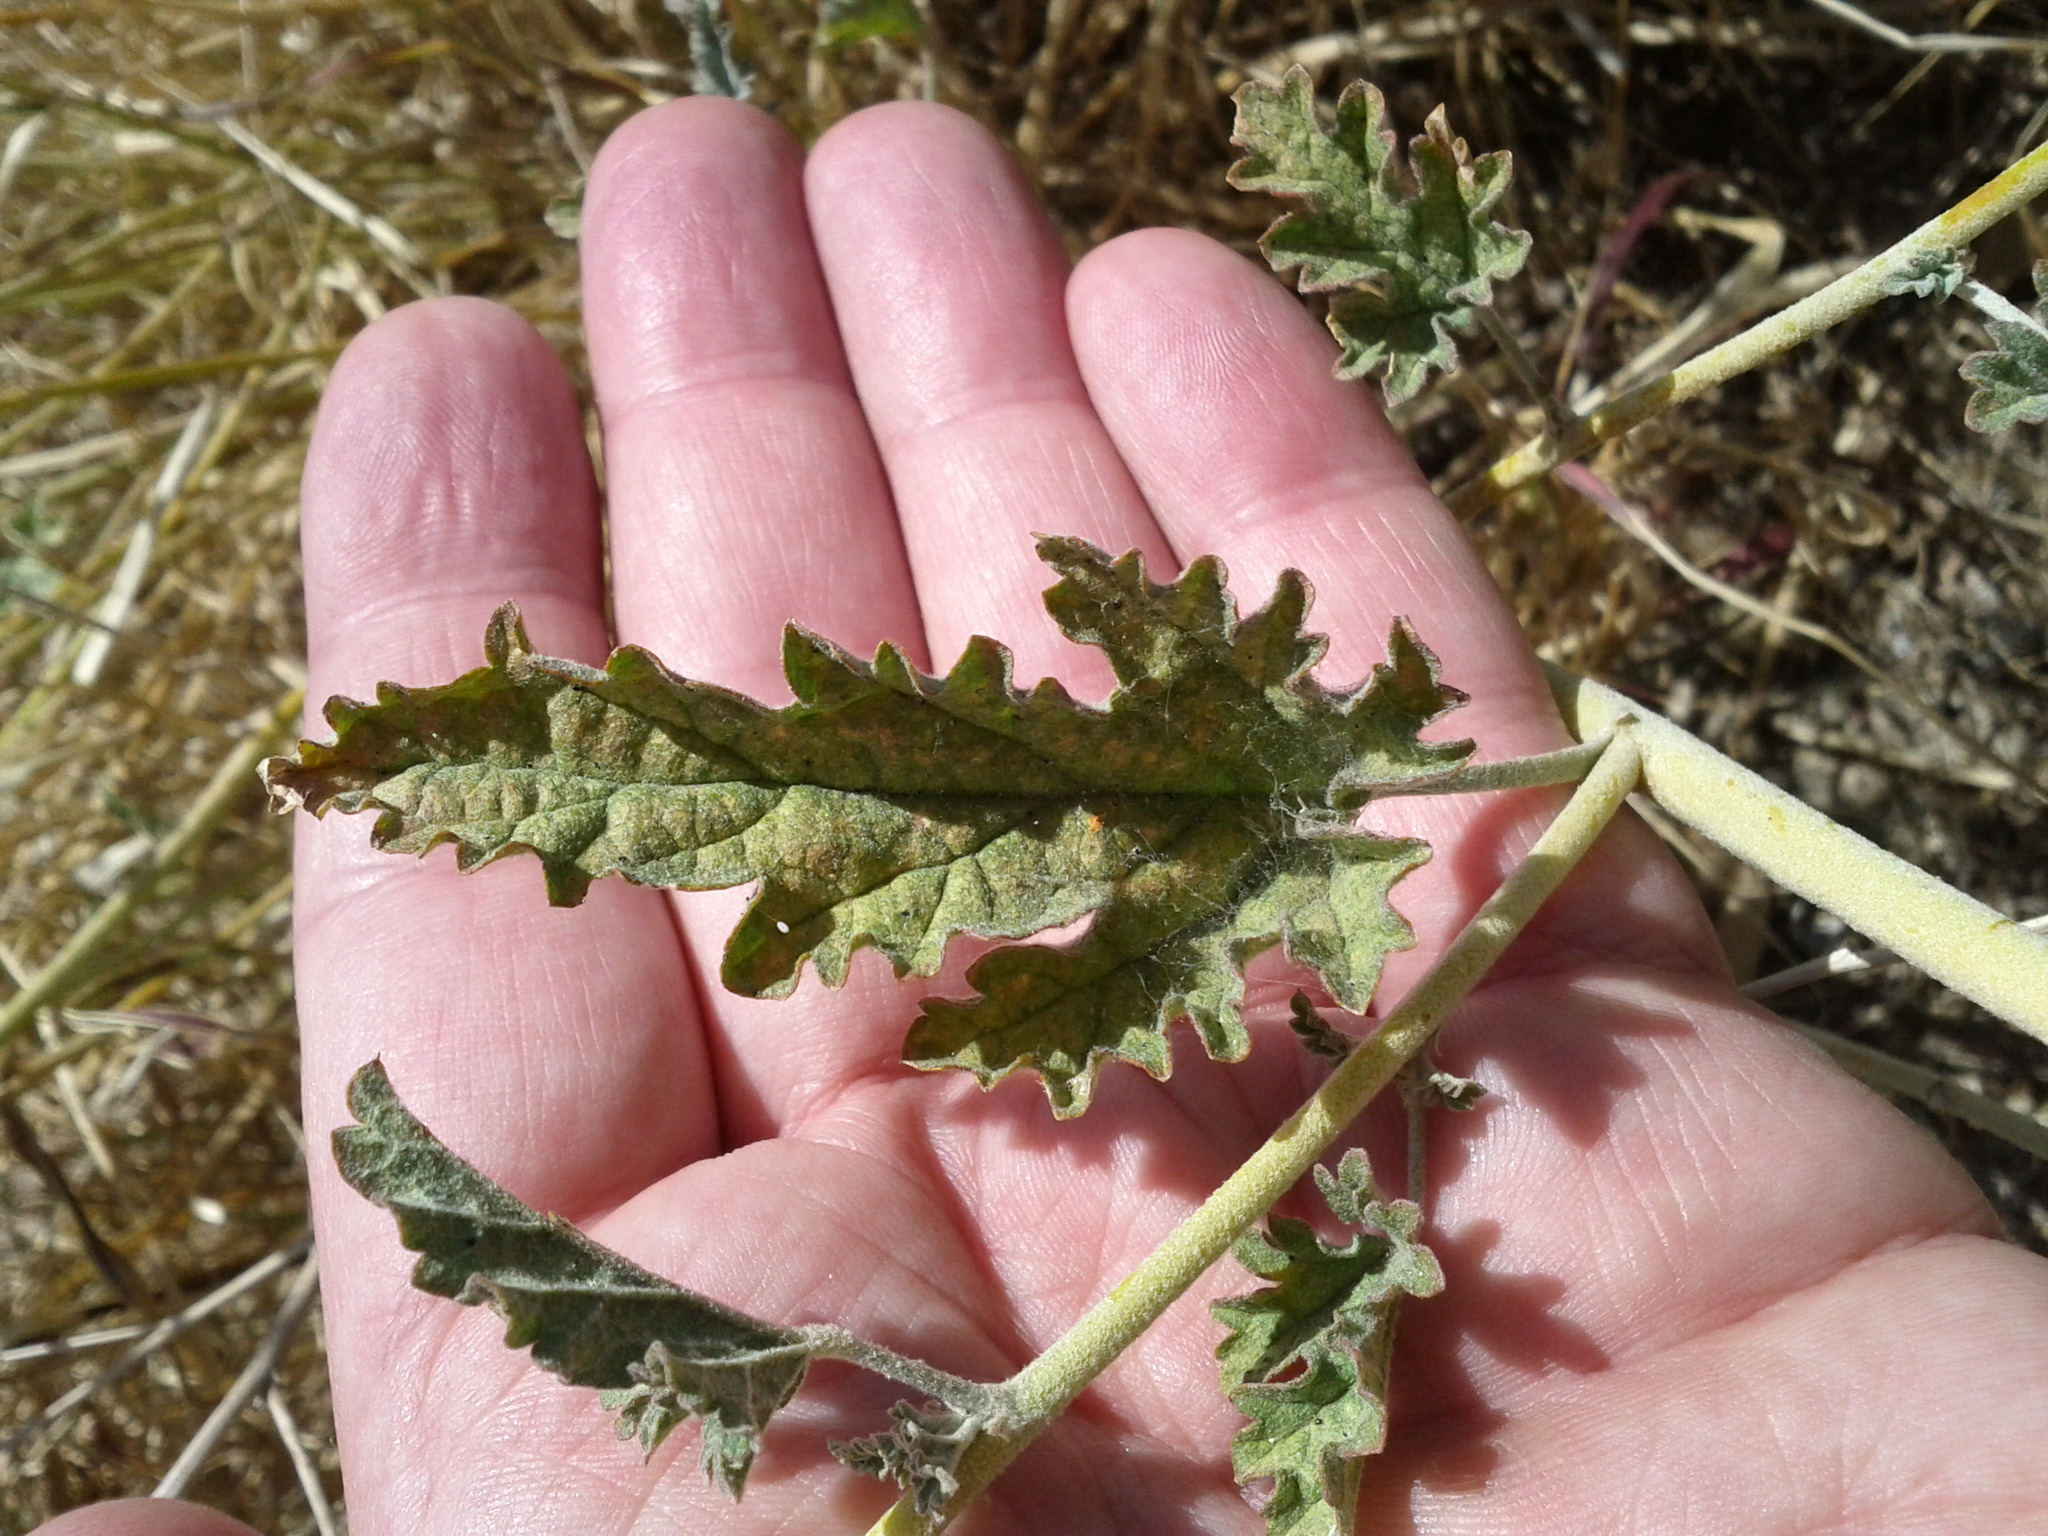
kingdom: Plantae
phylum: Tracheophyta
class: Magnoliopsida
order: Malvales
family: Malvaceae
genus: Sphaeralcea
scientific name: Sphaeralcea hastulata
